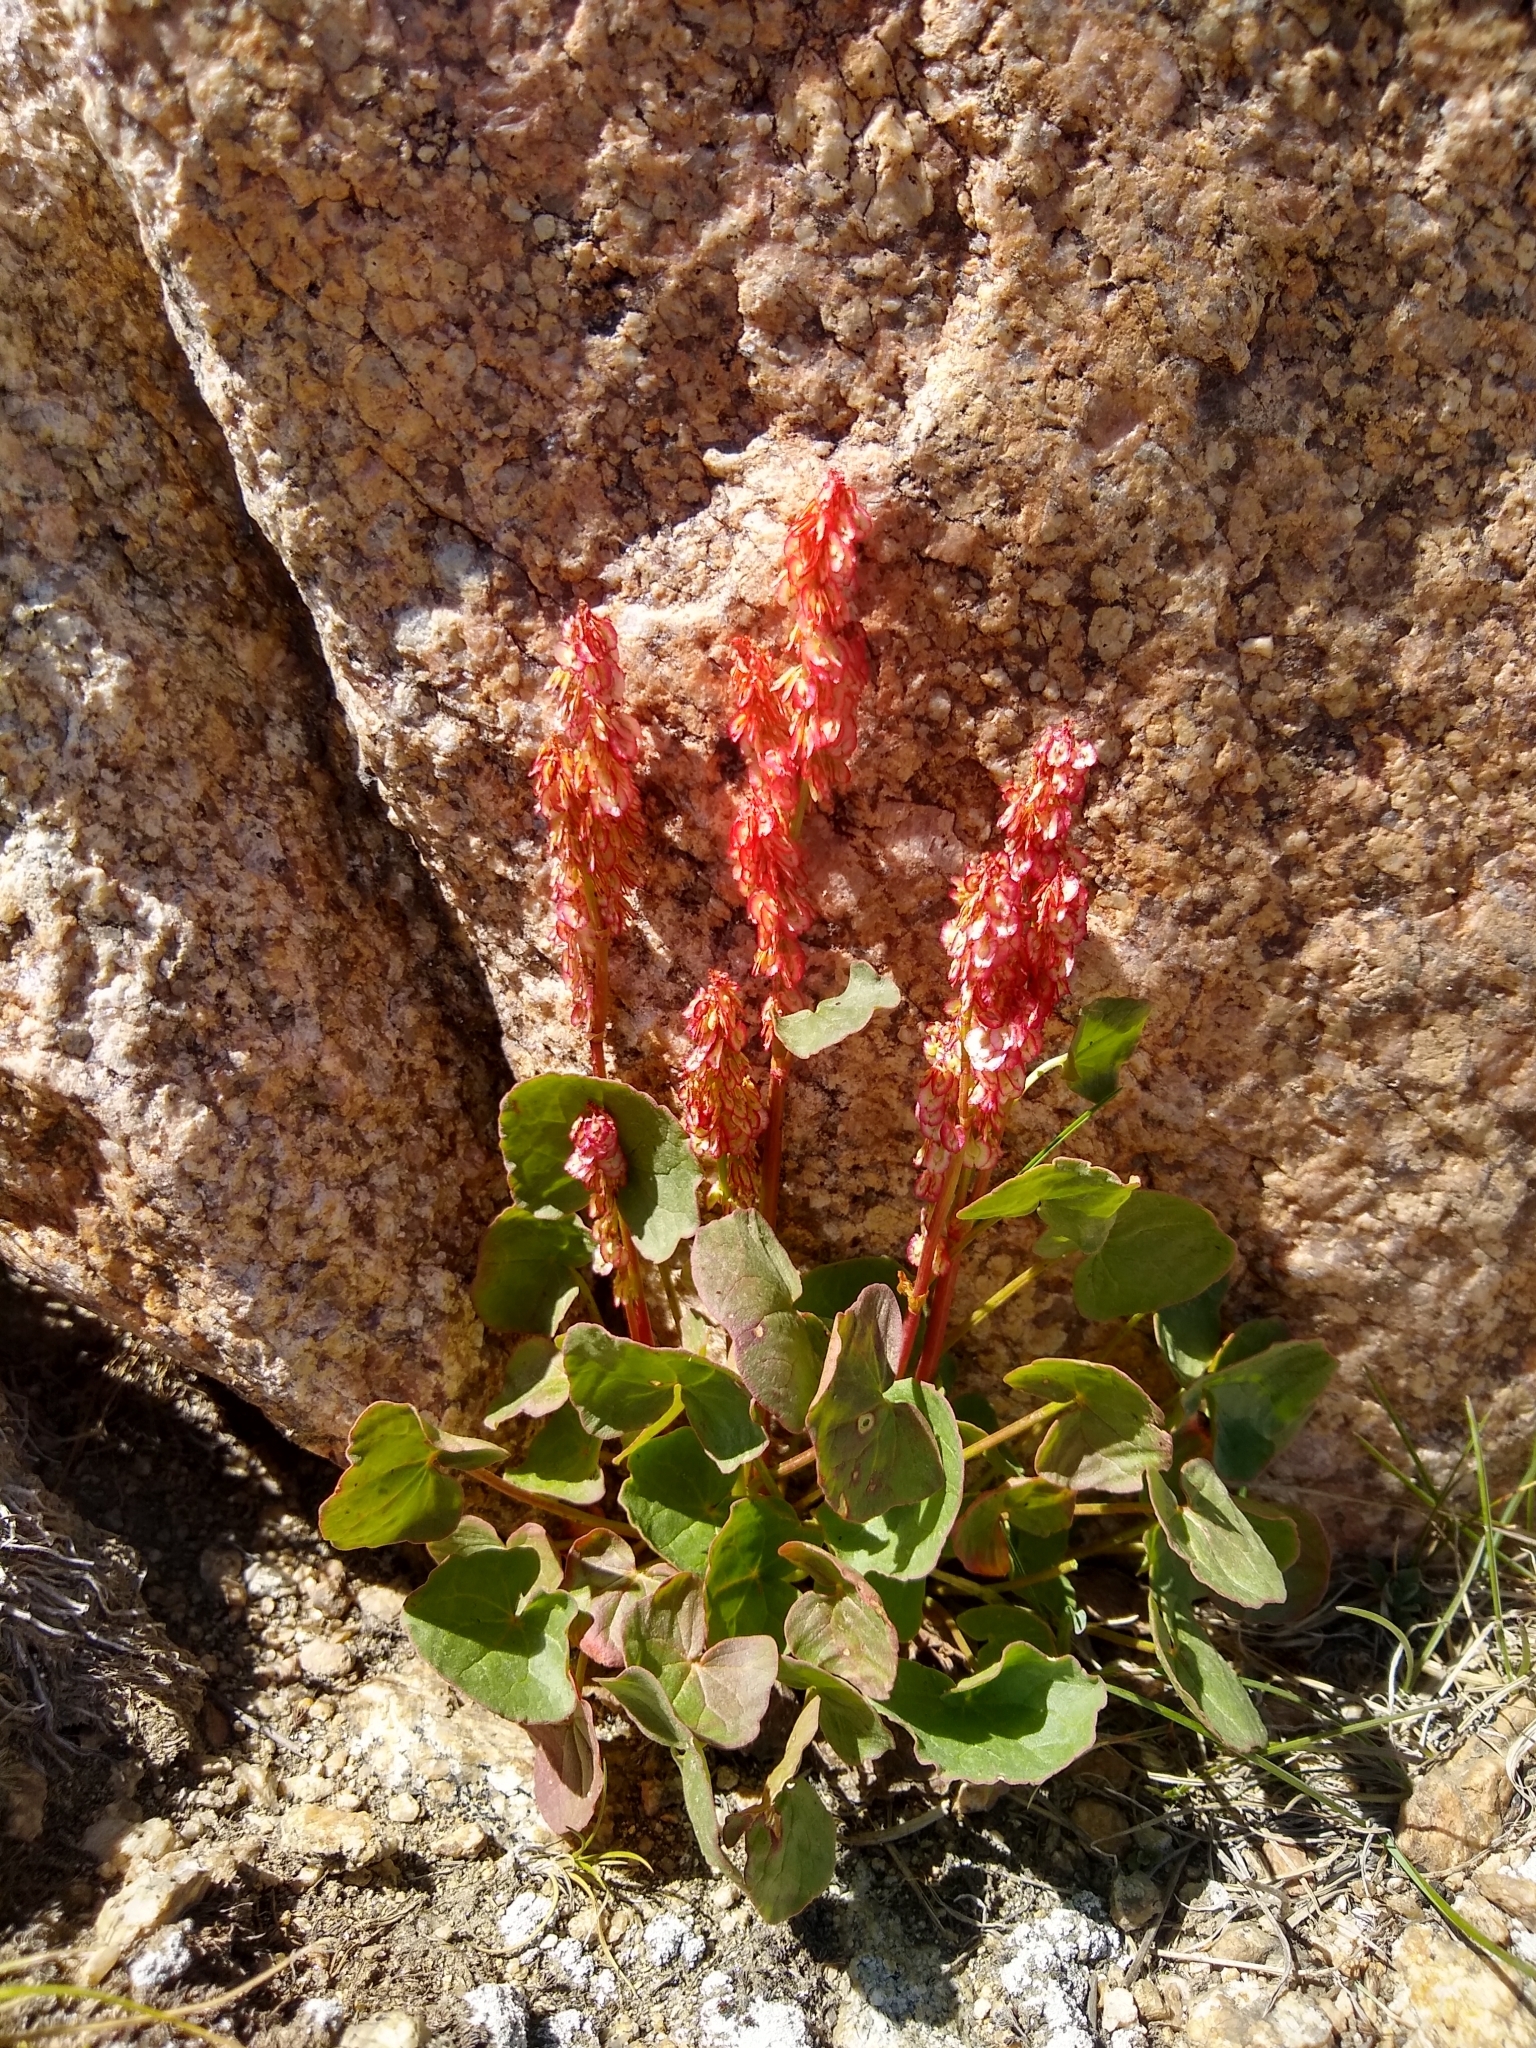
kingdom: Plantae
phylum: Tracheophyta
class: Magnoliopsida
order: Caryophyllales
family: Polygonaceae
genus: Oxyria
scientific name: Oxyria digyna
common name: Alpine mountain-sorrel
